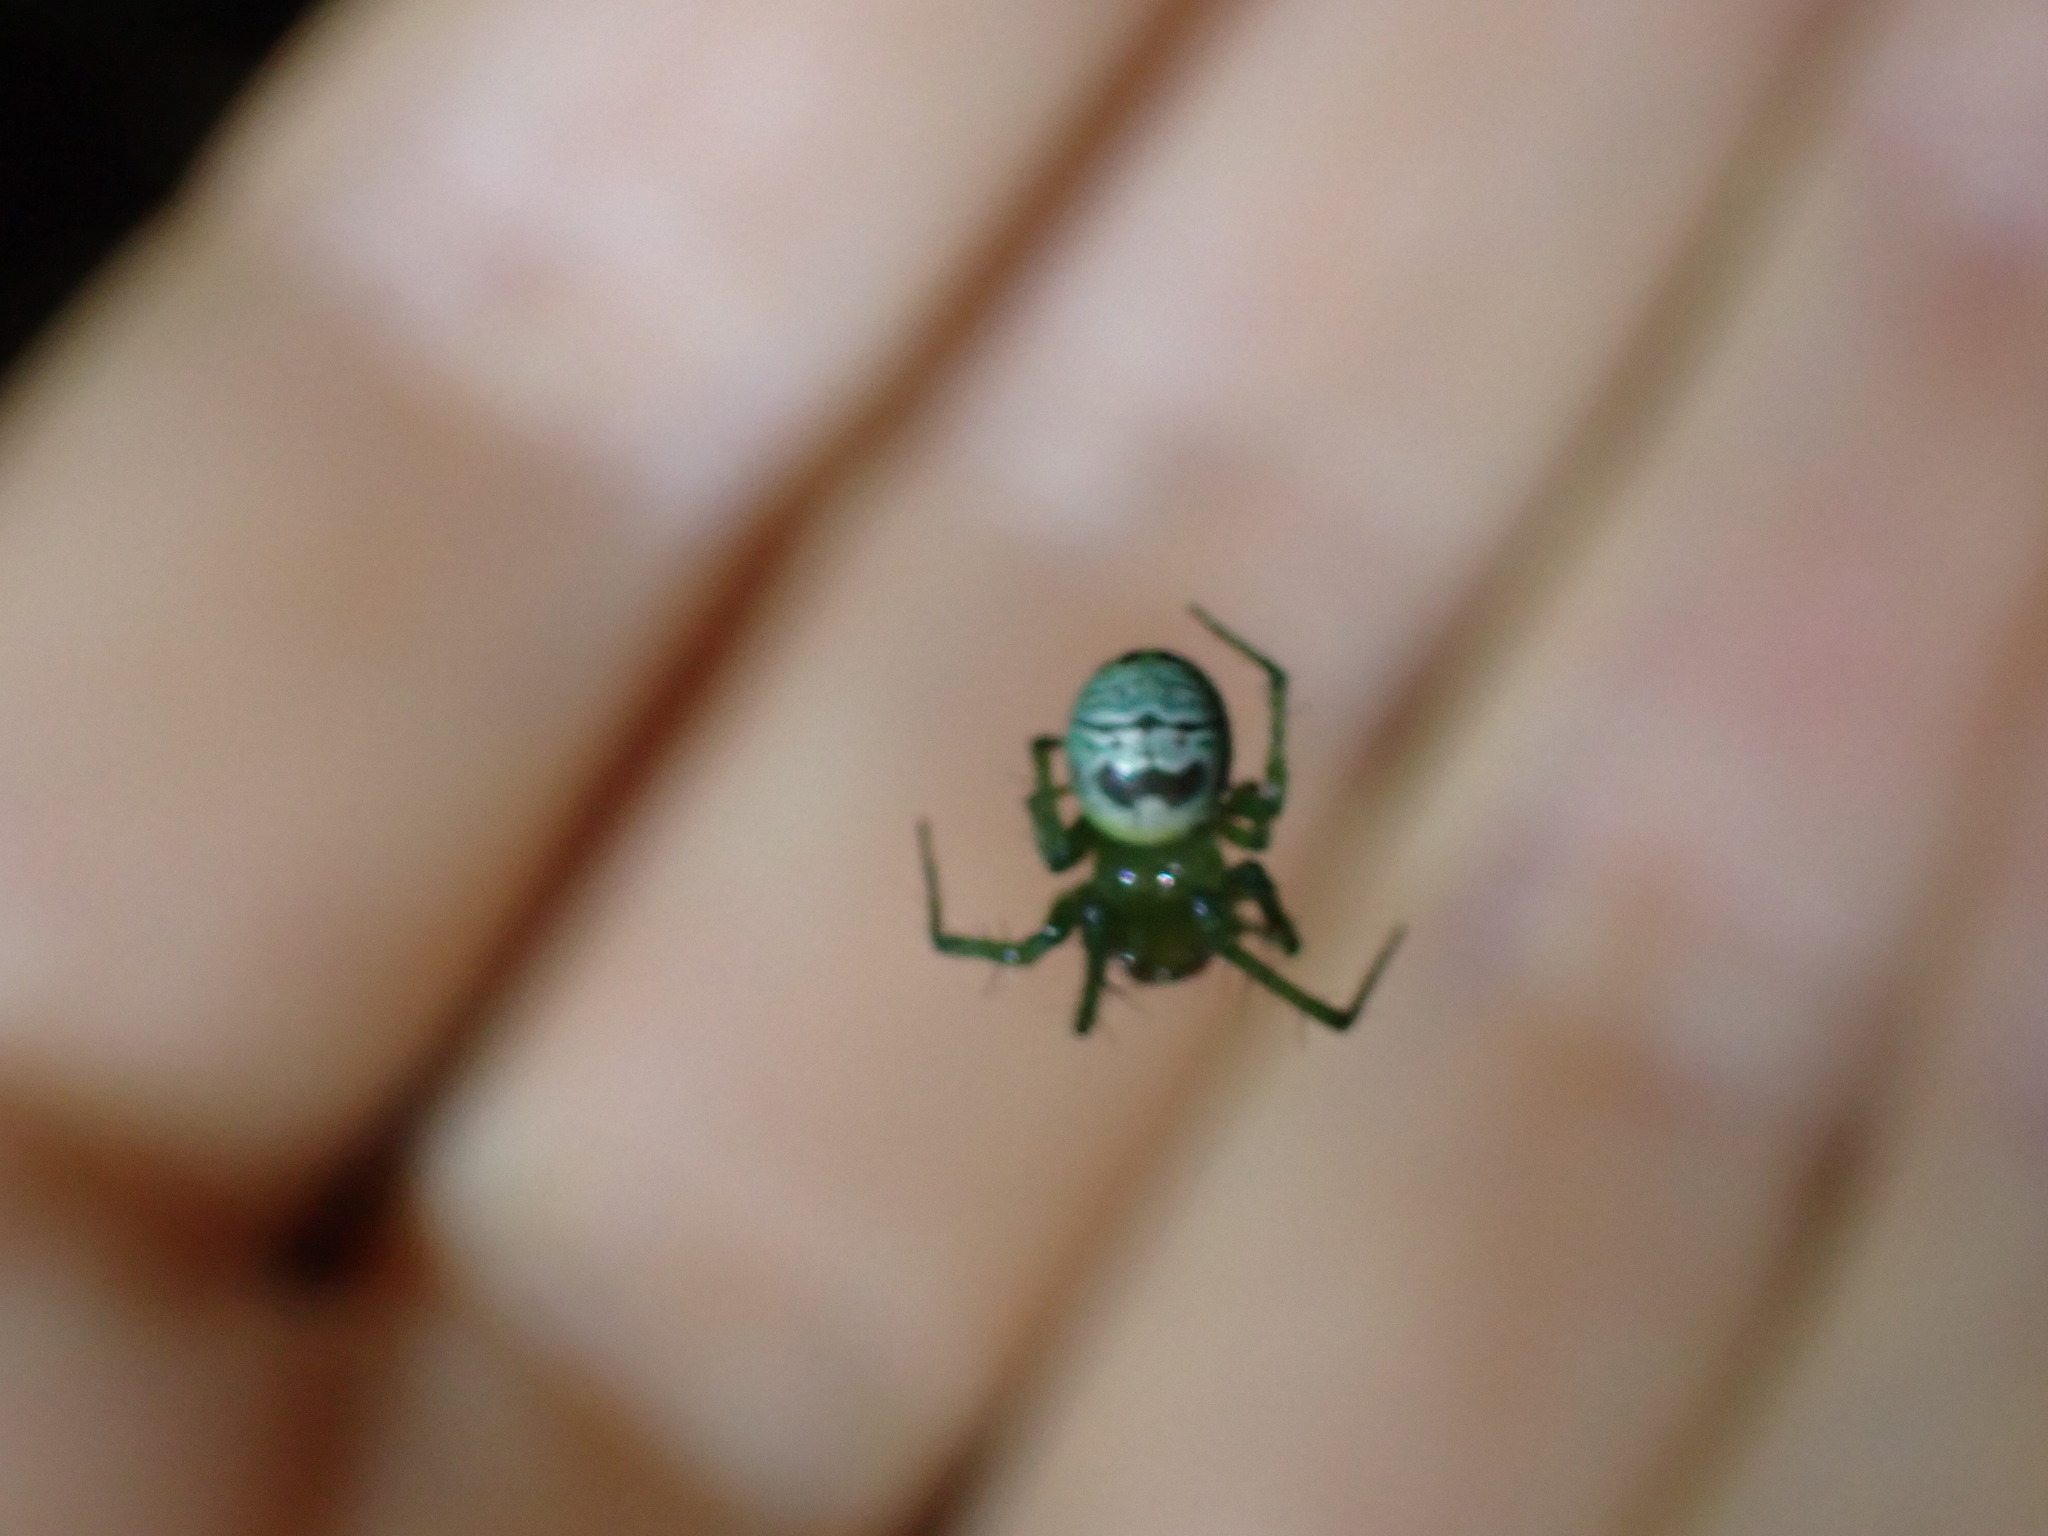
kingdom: Animalia
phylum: Arthropoda
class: Arachnida
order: Araneae
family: Araneidae
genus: Bijoaraneus
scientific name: Bijoaraneus praesignis
